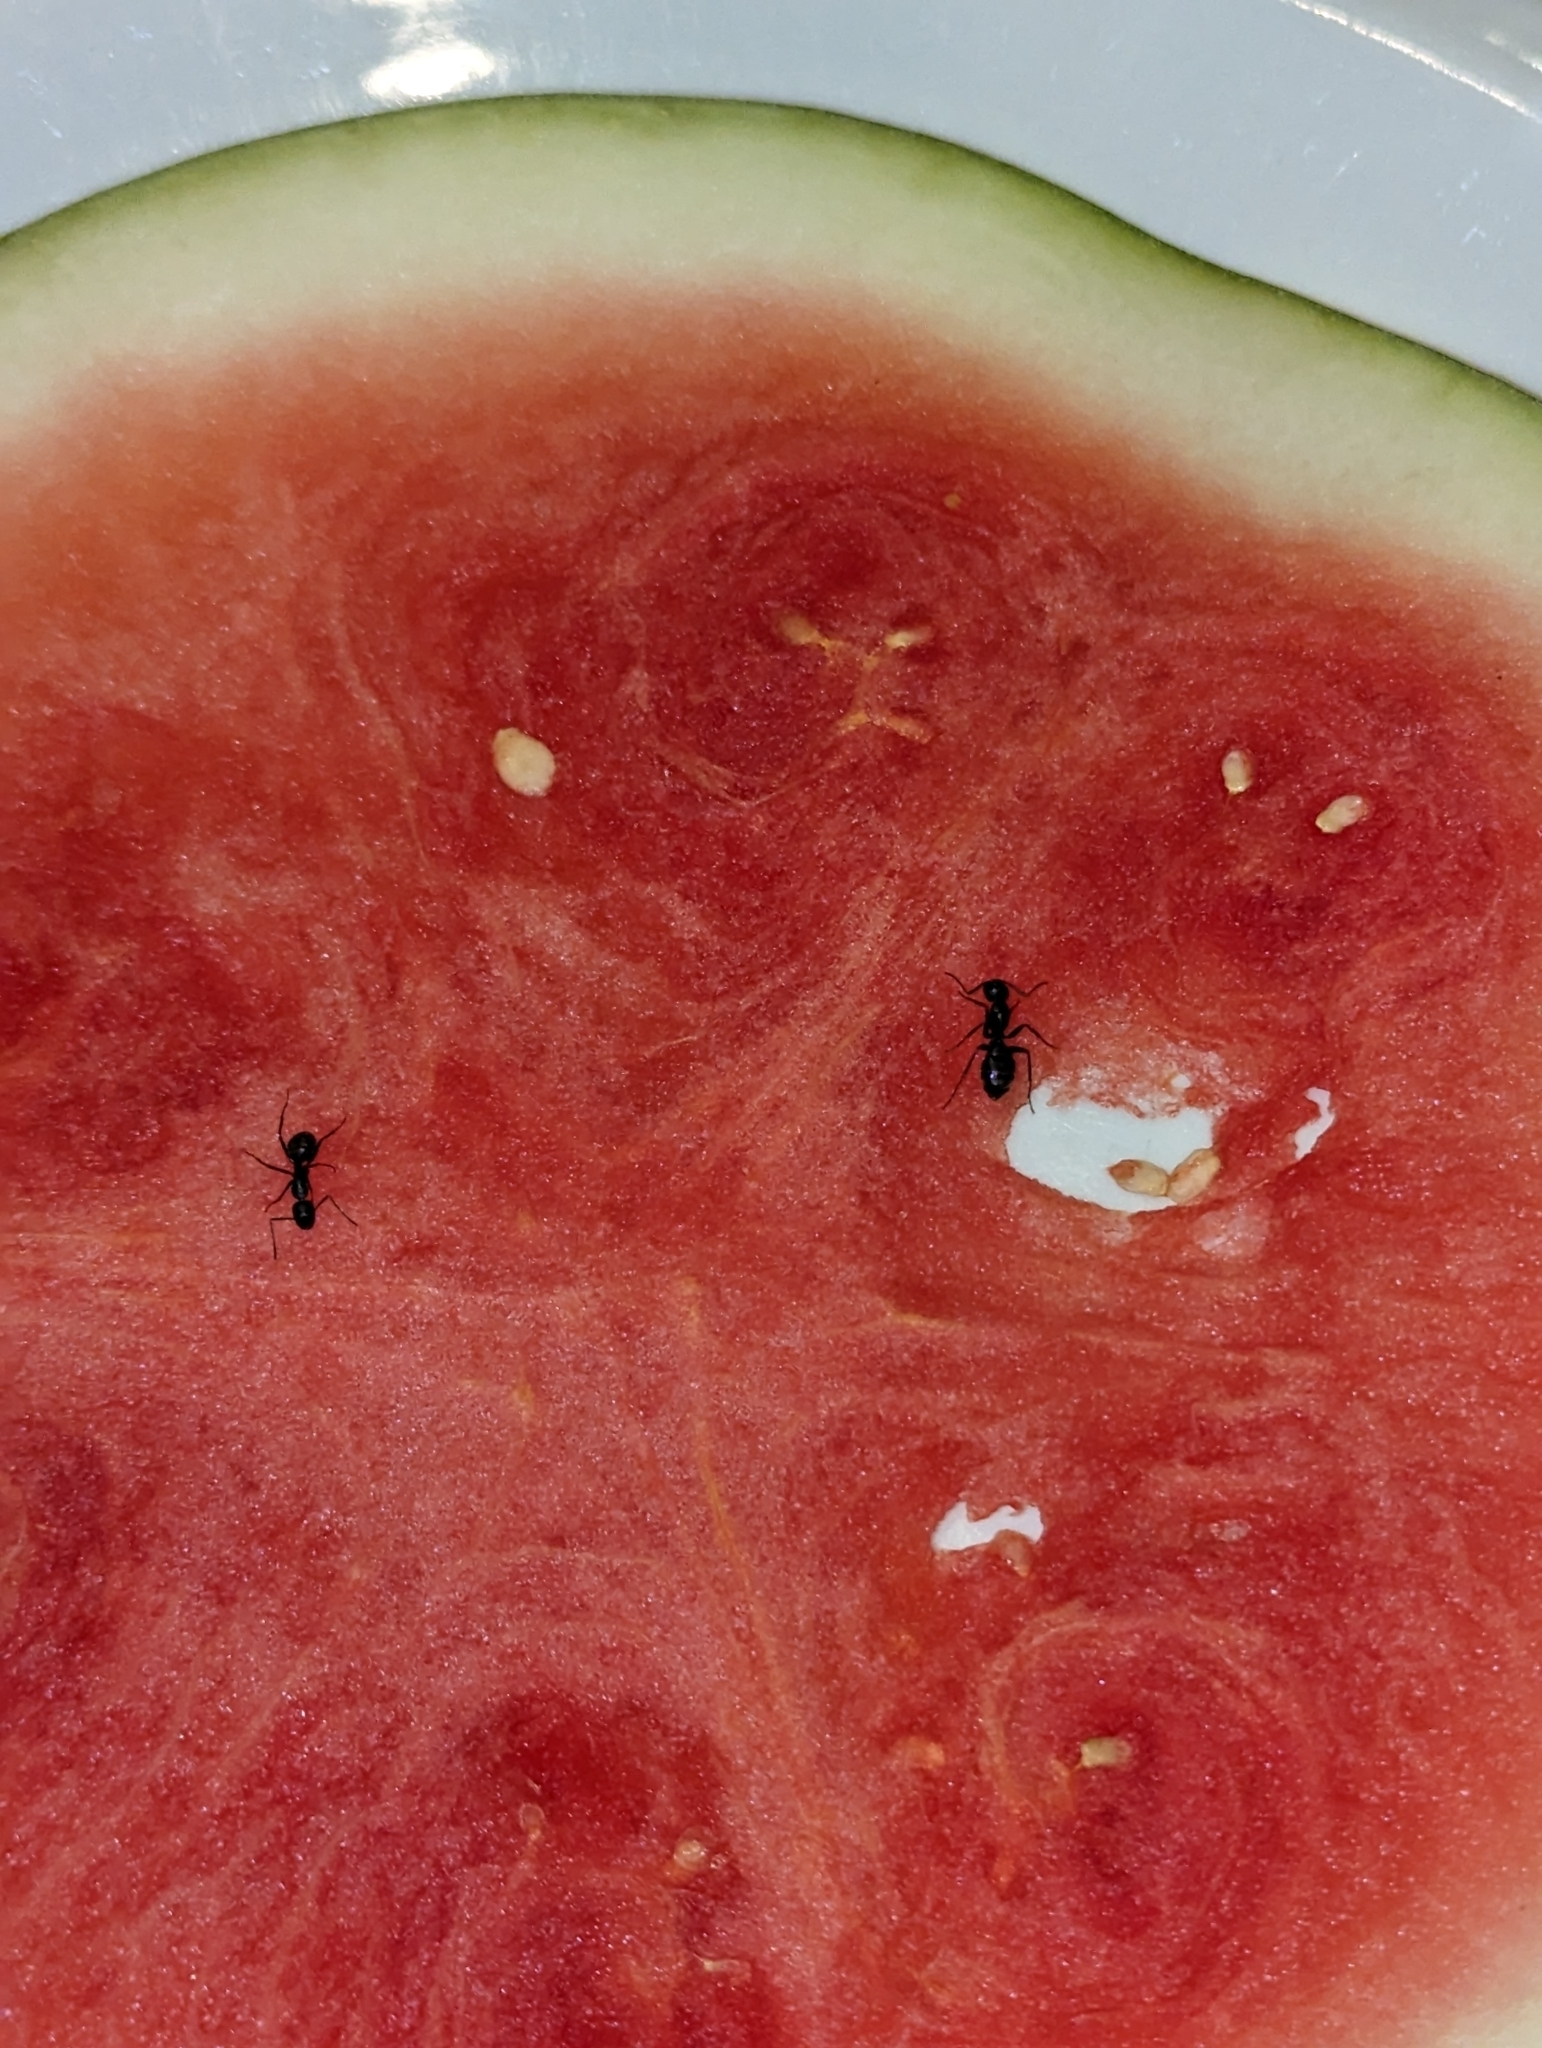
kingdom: Animalia
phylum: Arthropoda
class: Insecta
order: Hymenoptera
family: Formicidae
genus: Camponotus
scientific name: Camponotus pennsylvanicus
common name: Black carpenter ant
